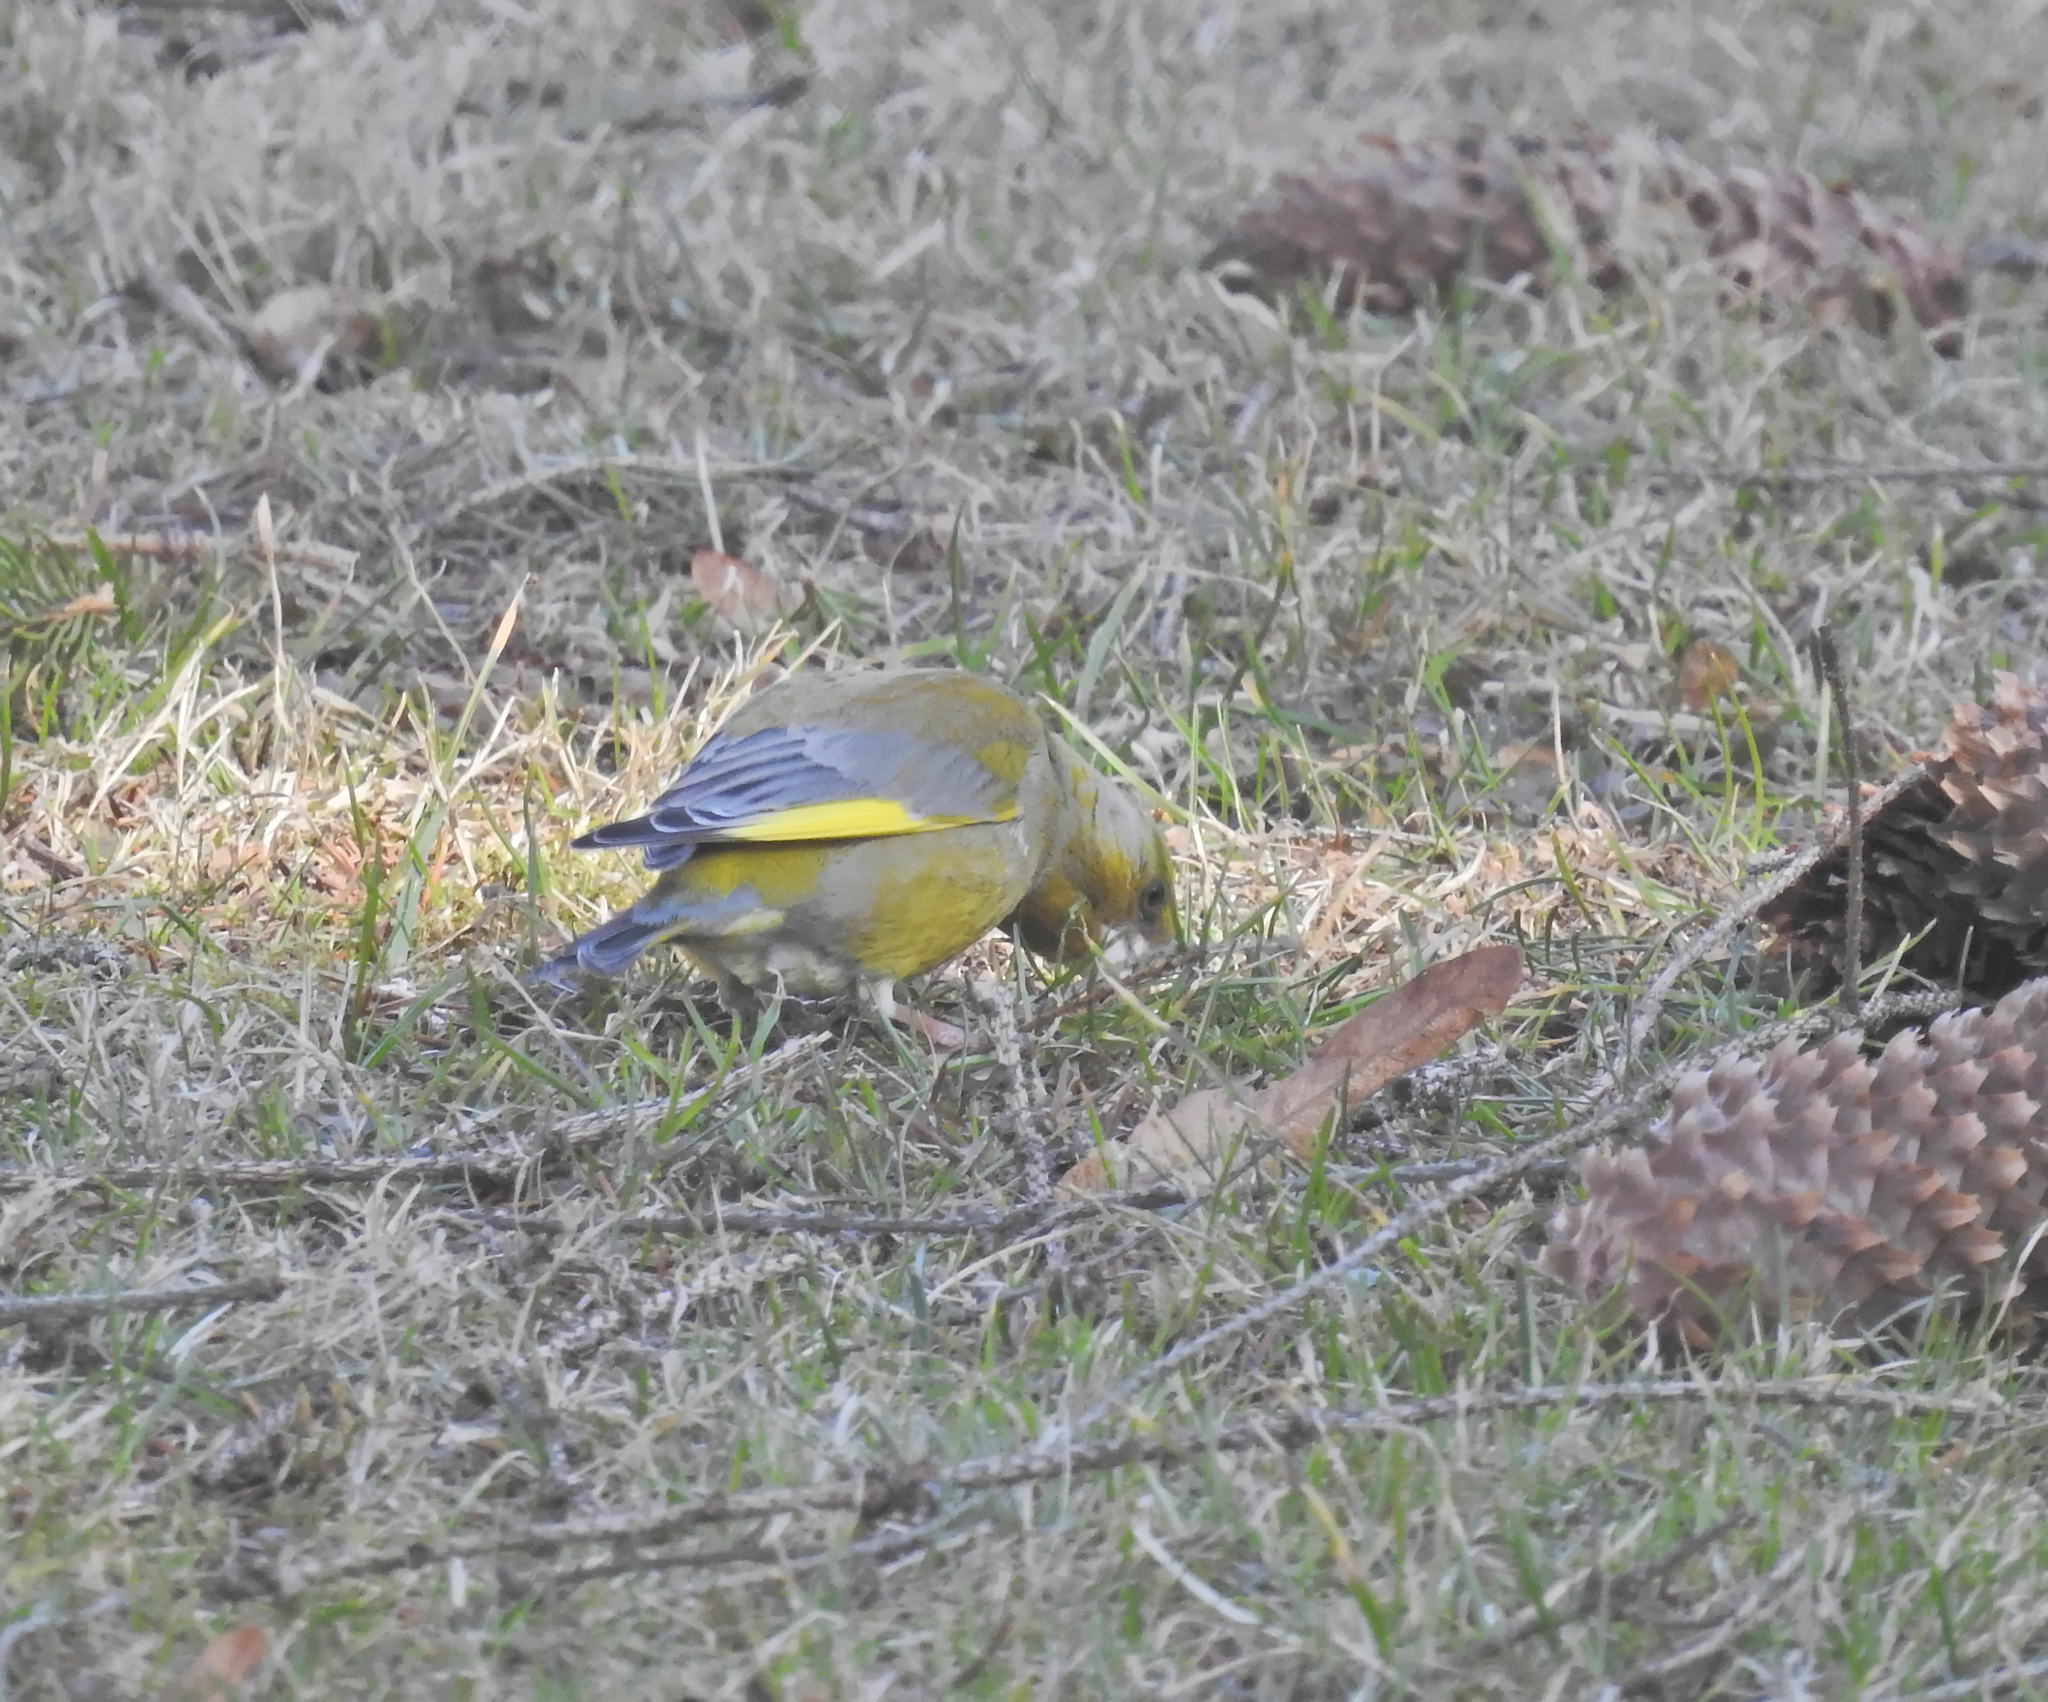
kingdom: Plantae
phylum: Tracheophyta
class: Liliopsida
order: Poales
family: Poaceae
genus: Chloris
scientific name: Chloris chloris
